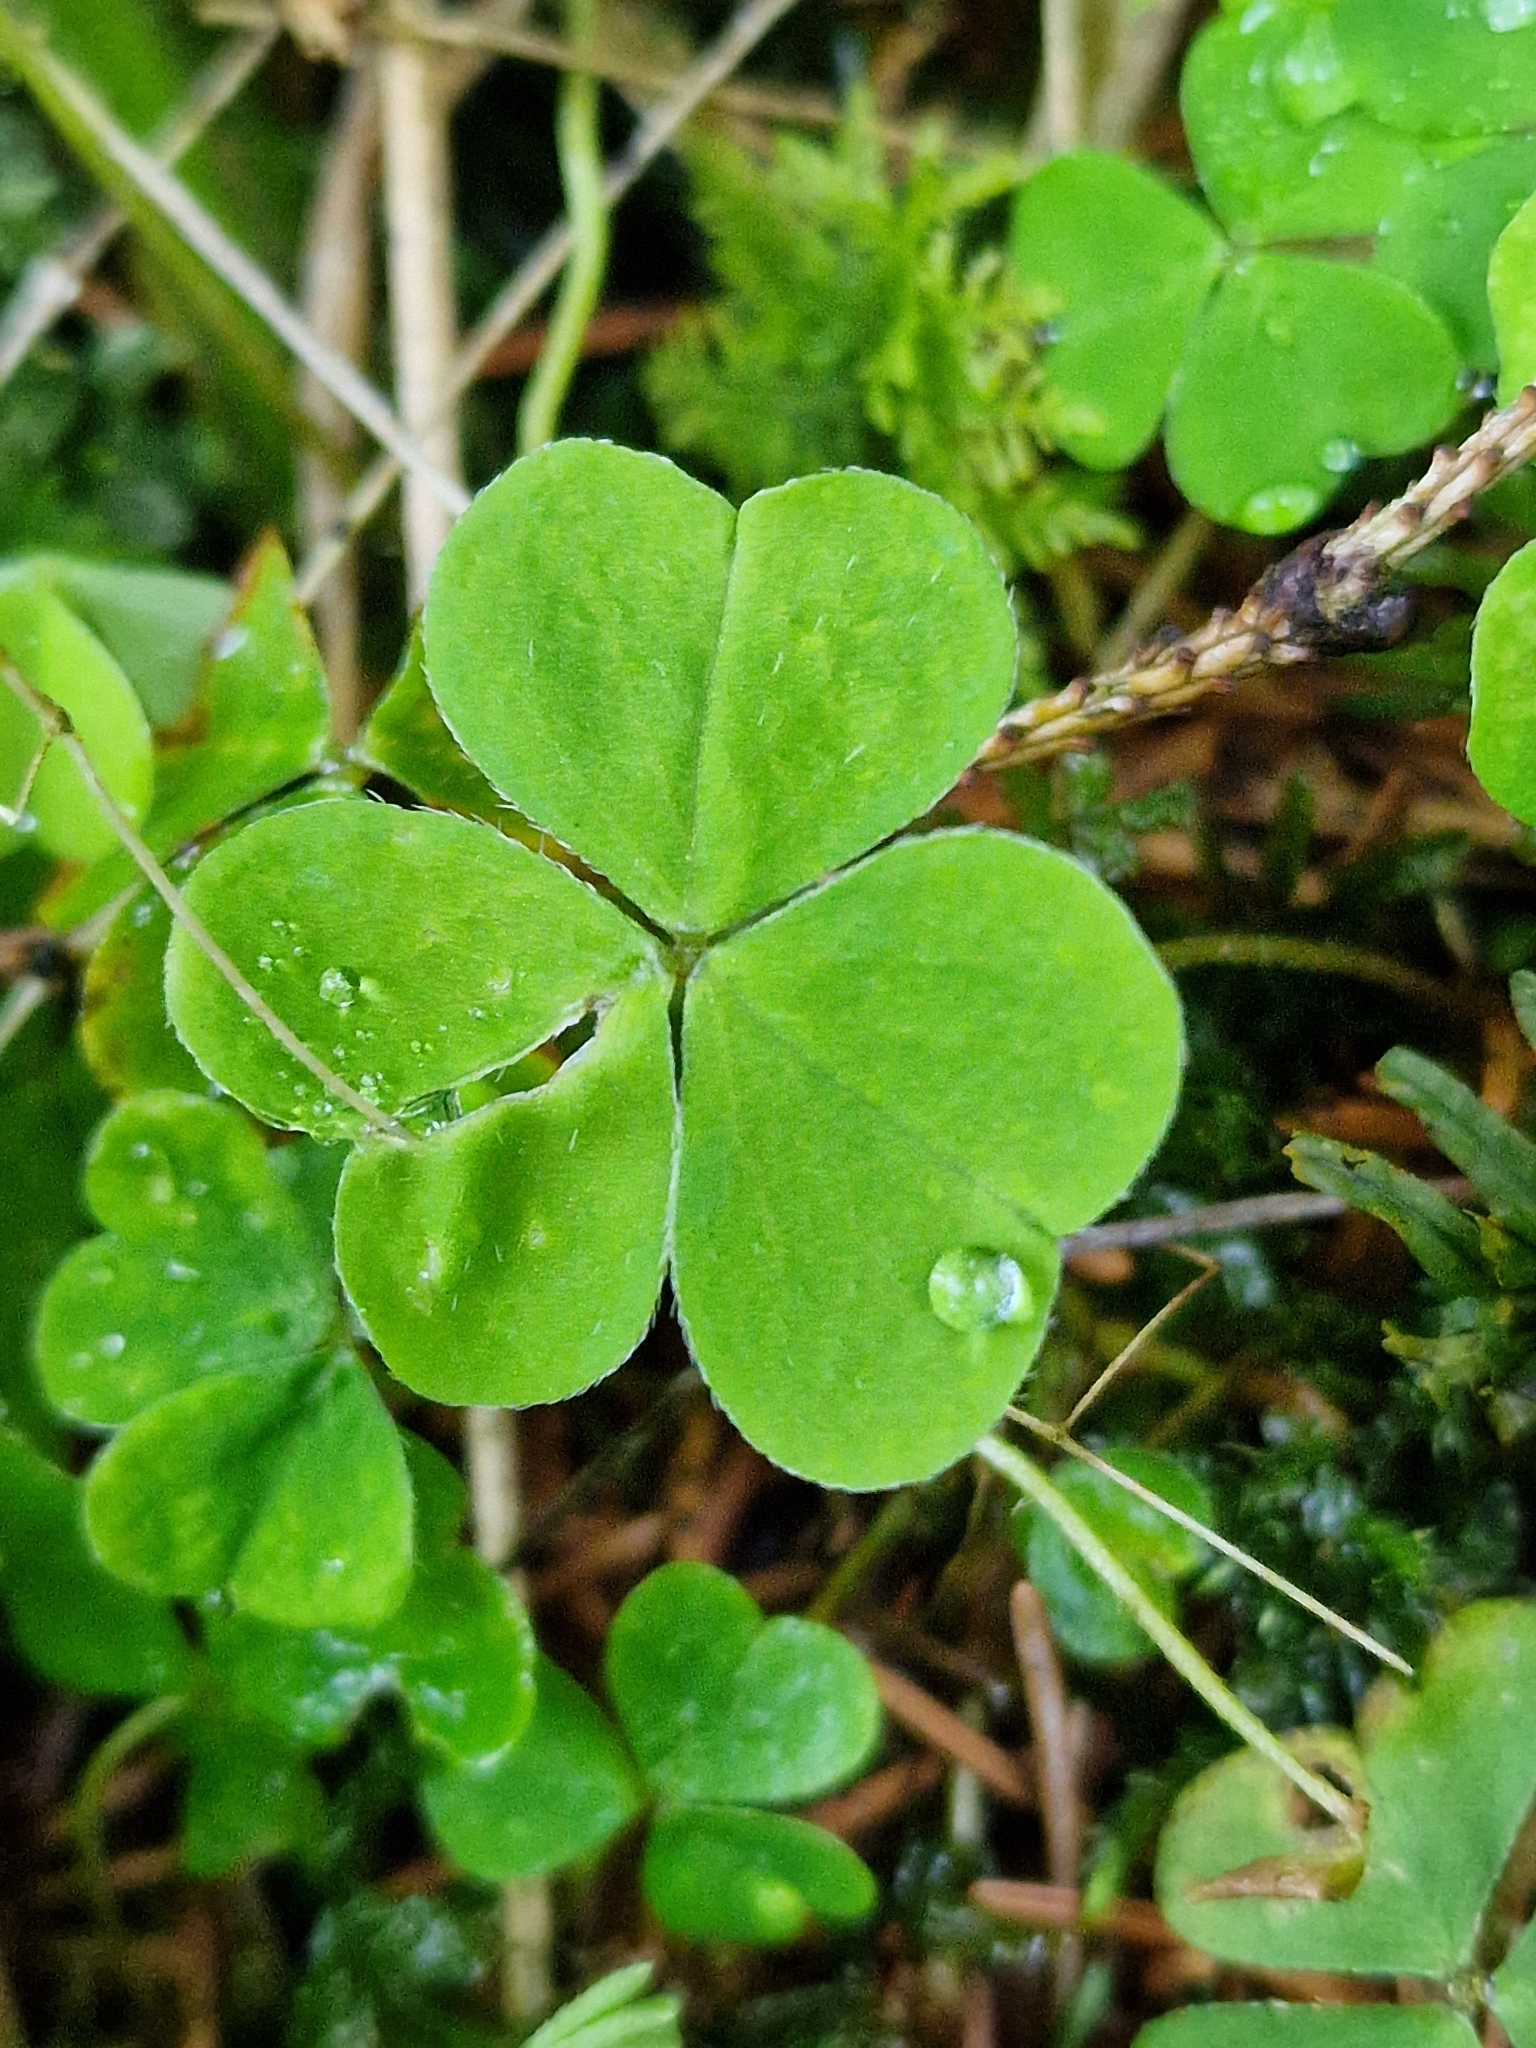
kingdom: Plantae
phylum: Tracheophyta
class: Magnoliopsida
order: Oxalidales
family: Oxalidaceae
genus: Oxalis
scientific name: Oxalis acetosella
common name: Wood-sorrel
